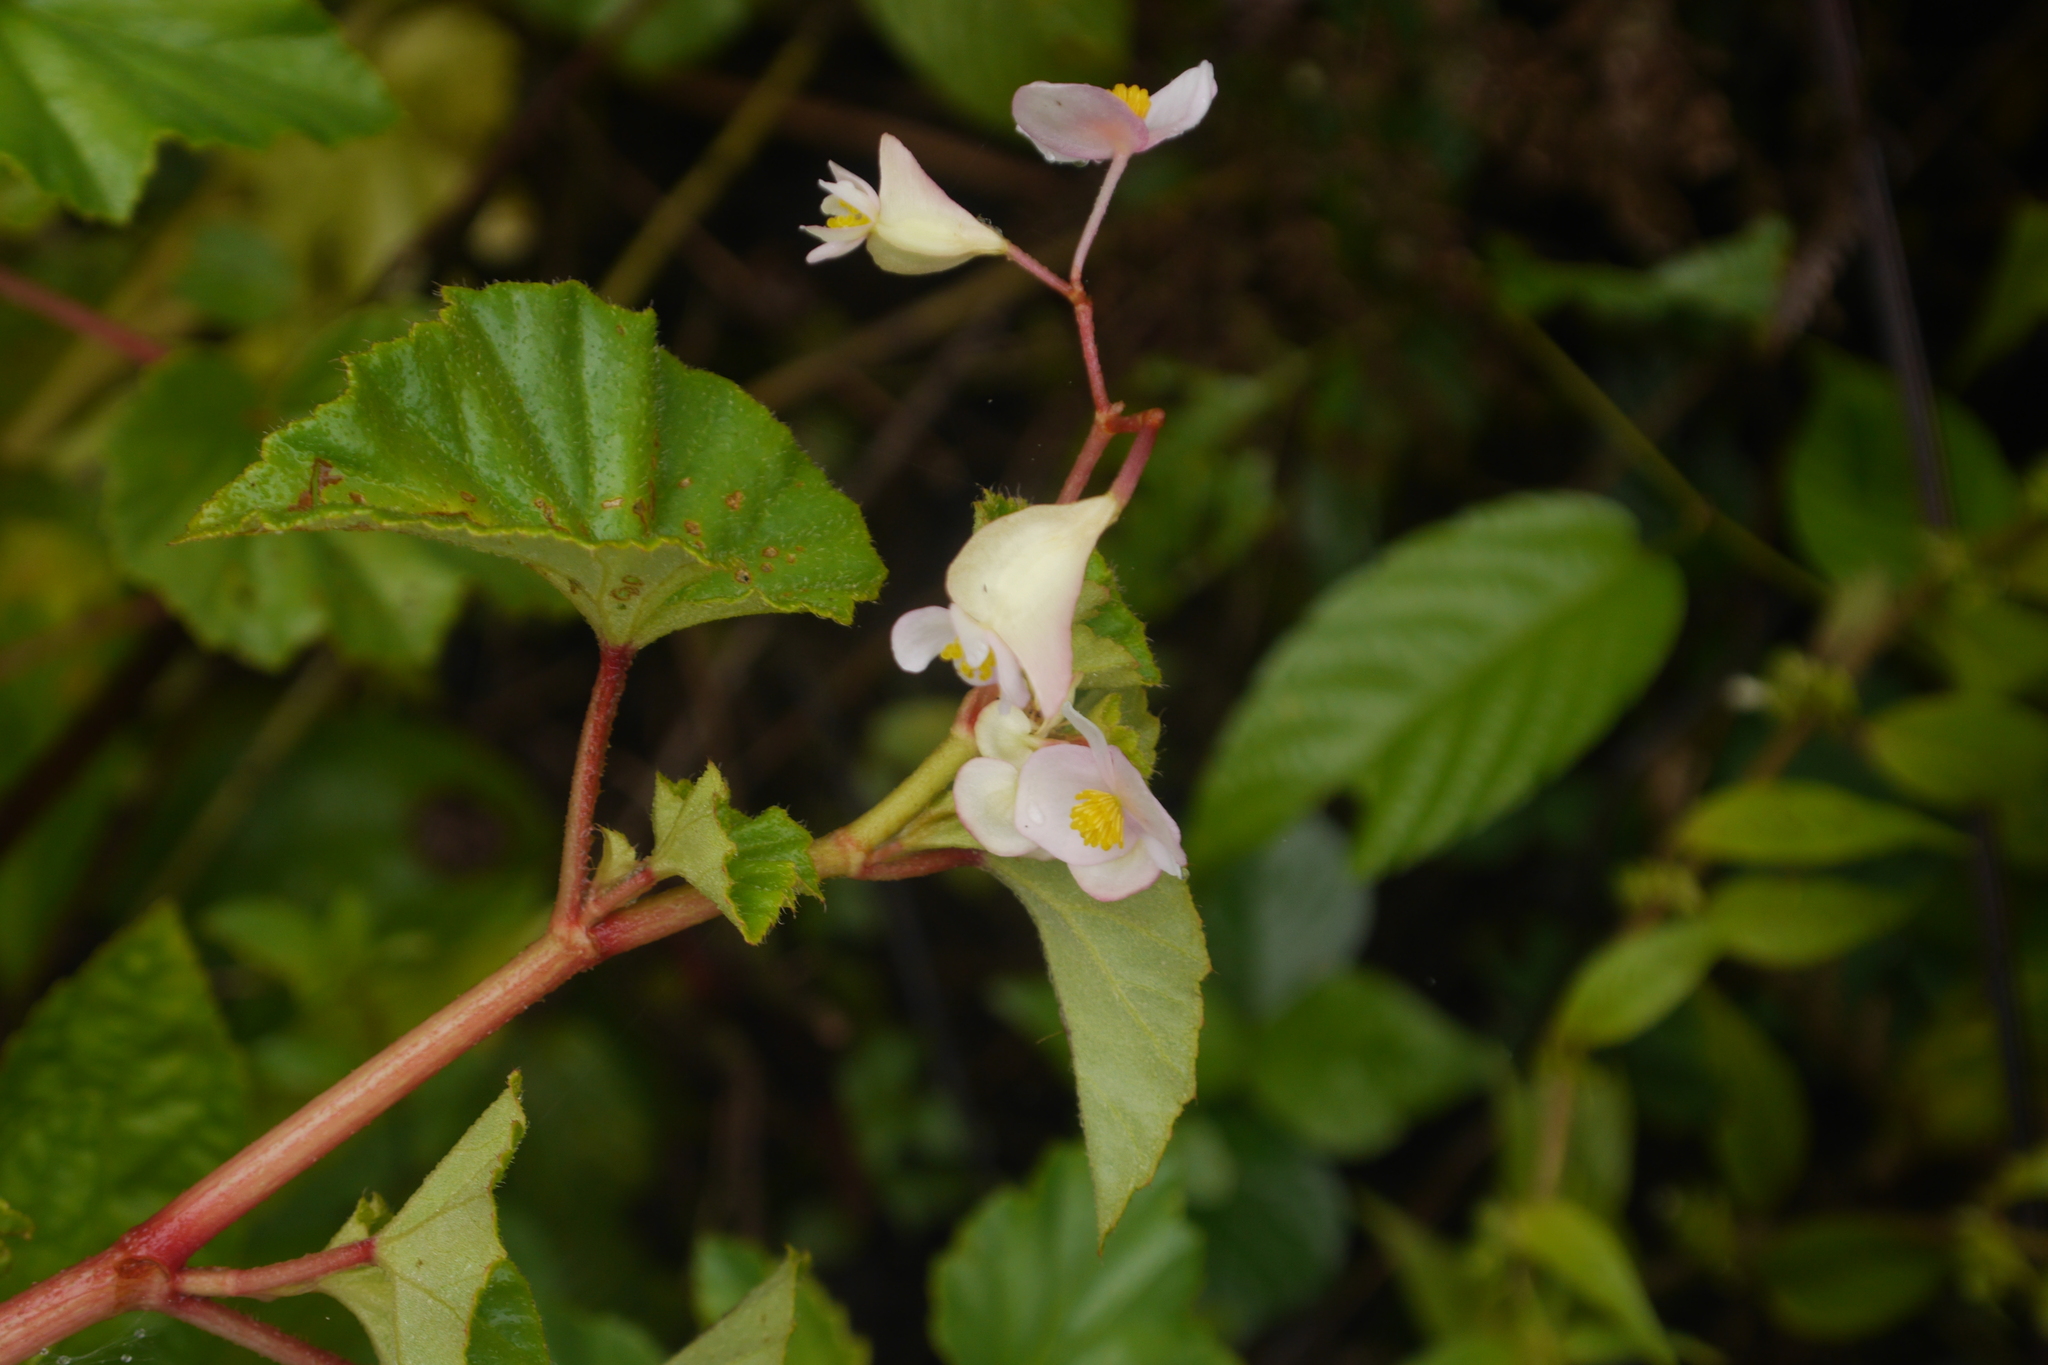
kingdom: Plantae
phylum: Tracheophyta
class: Magnoliopsida
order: Cucurbitales
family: Begoniaceae
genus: Begonia
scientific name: Begonia fischeri
